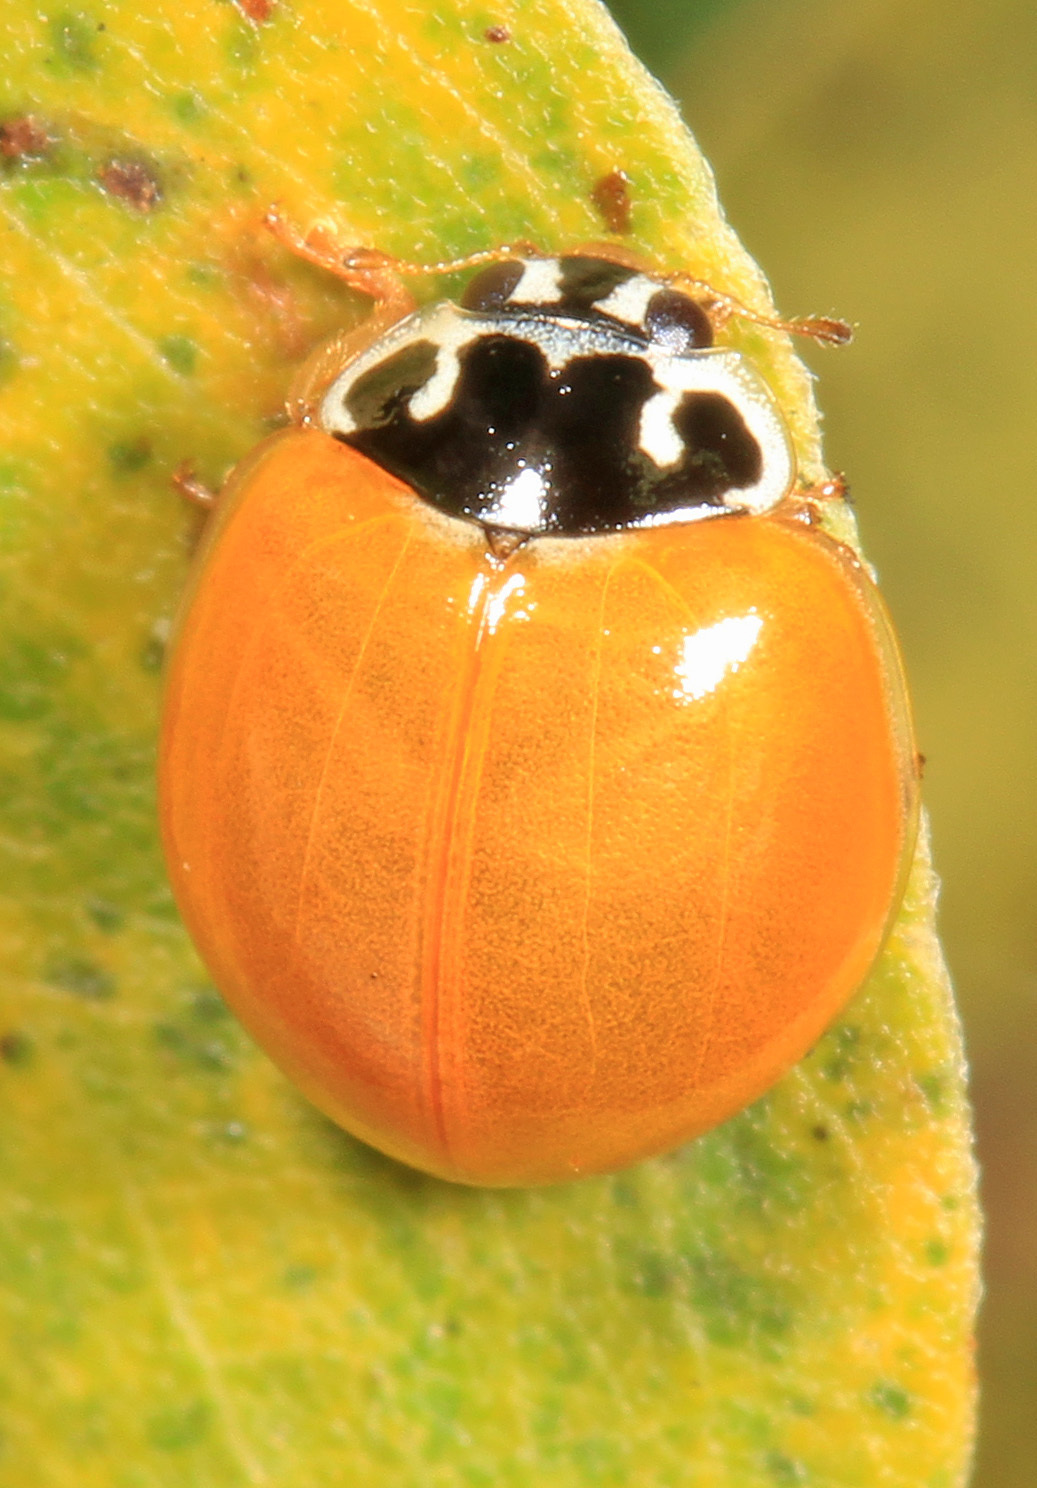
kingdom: Animalia
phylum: Arthropoda
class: Insecta
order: Coleoptera
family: Coccinellidae
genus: Cycloneda
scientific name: Cycloneda munda
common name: Polished lady beetle
